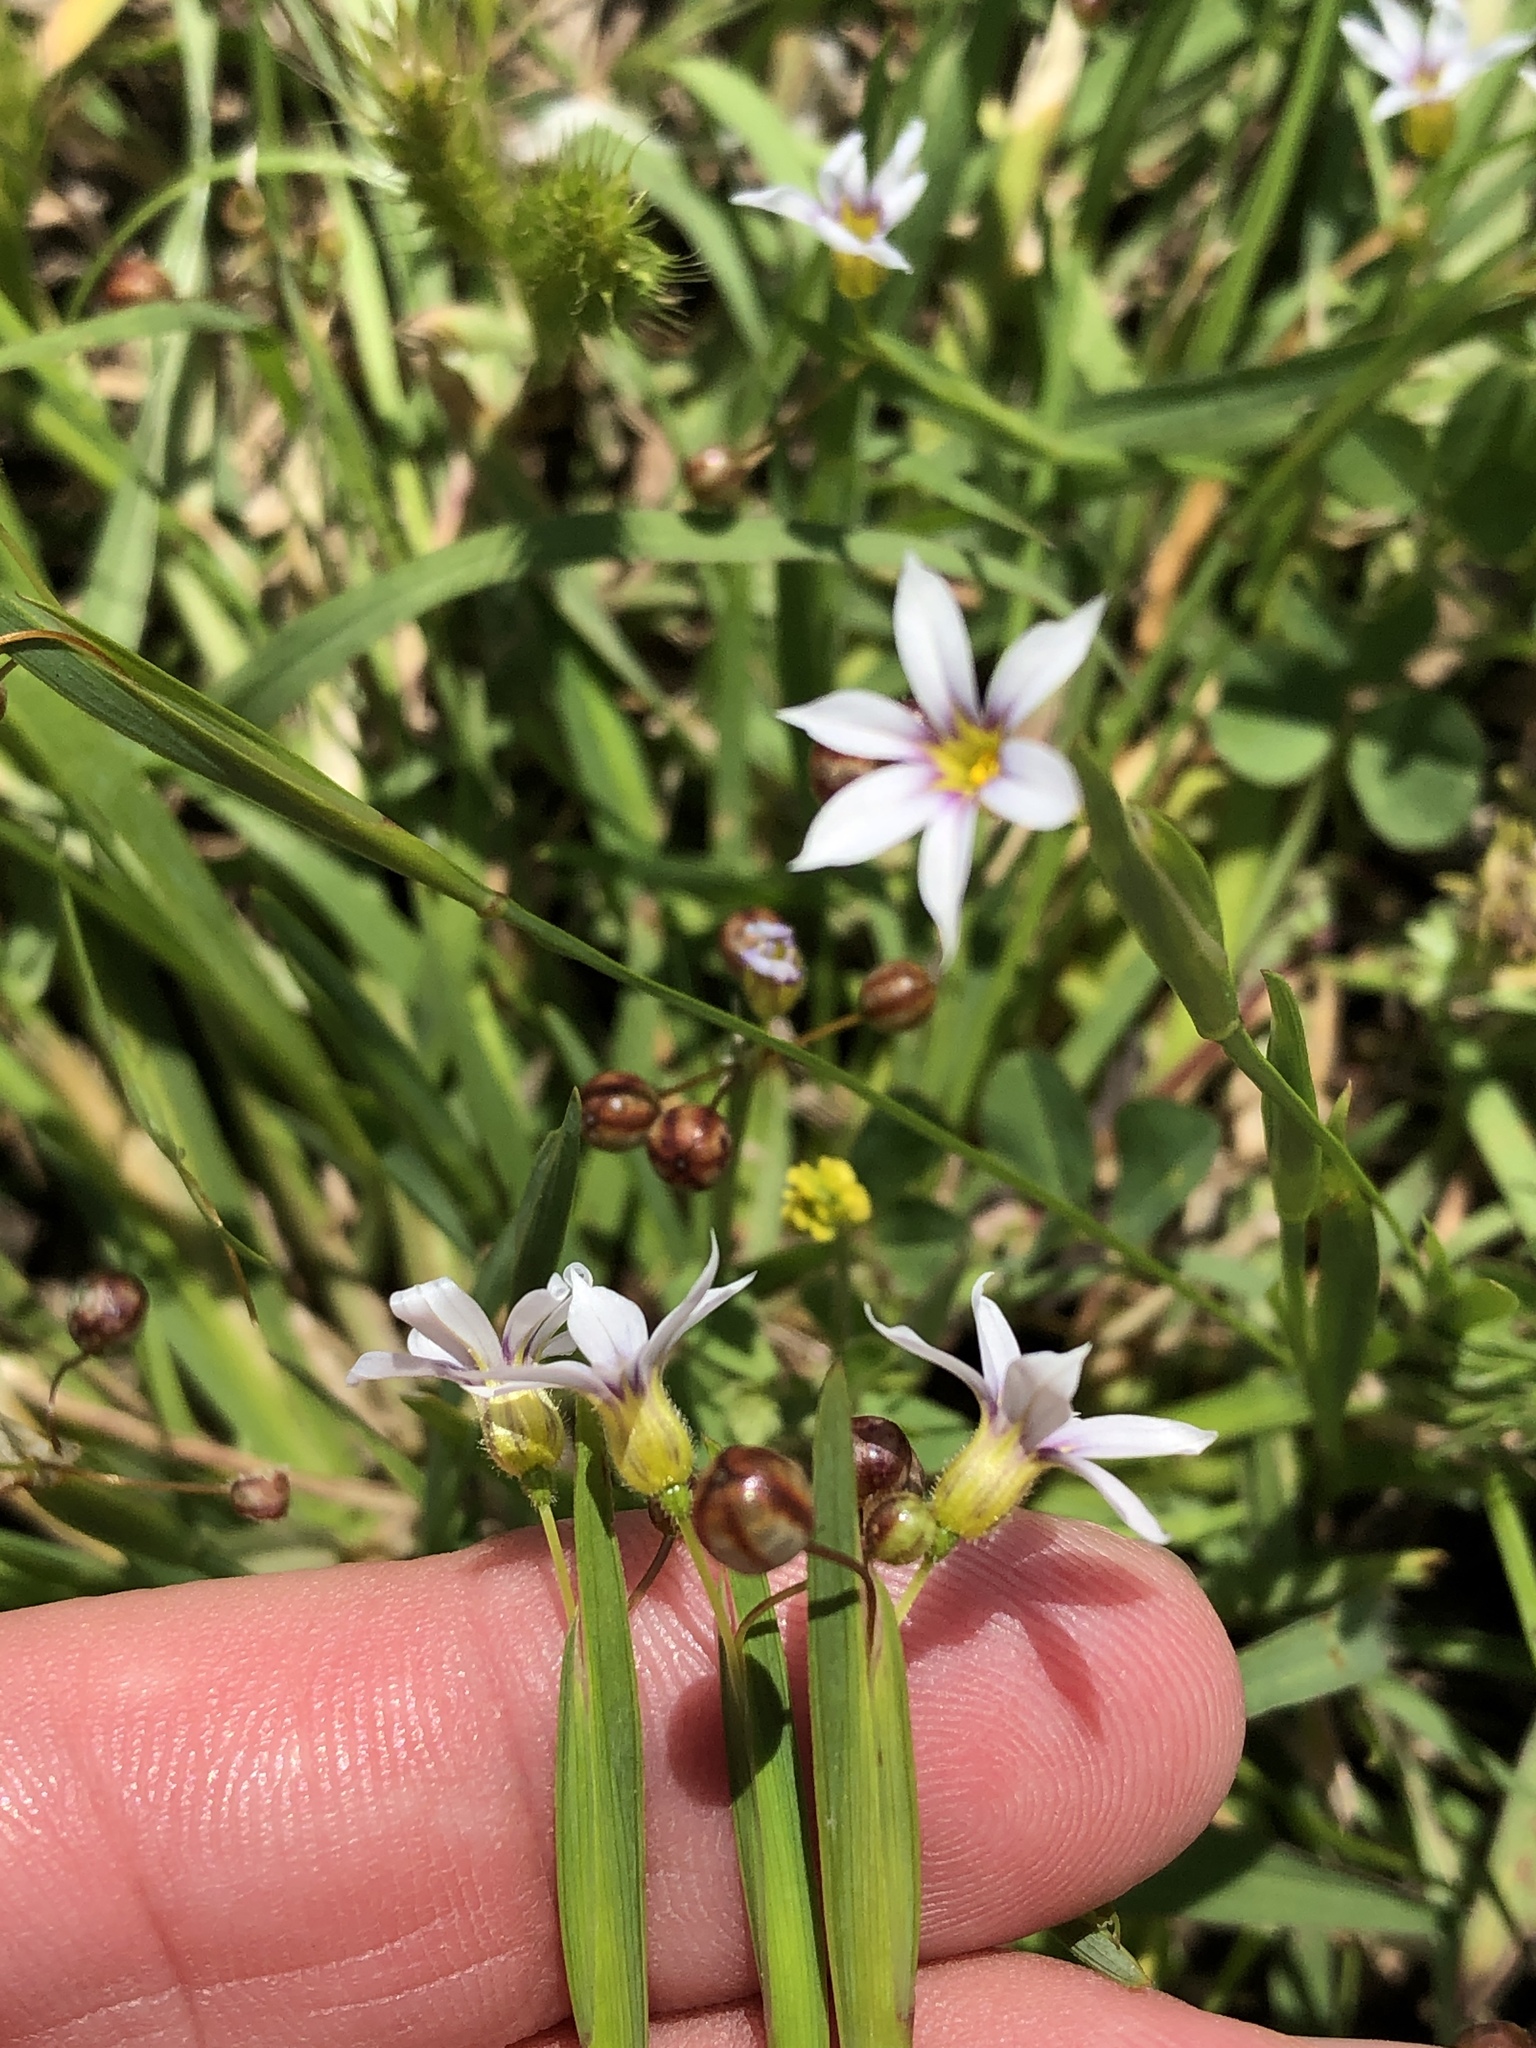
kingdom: Plantae
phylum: Tracheophyta
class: Liliopsida
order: Asparagales
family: Iridaceae
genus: Sisyrinchium
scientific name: Sisyrinchium micranthum
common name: Bermuda pigroot
